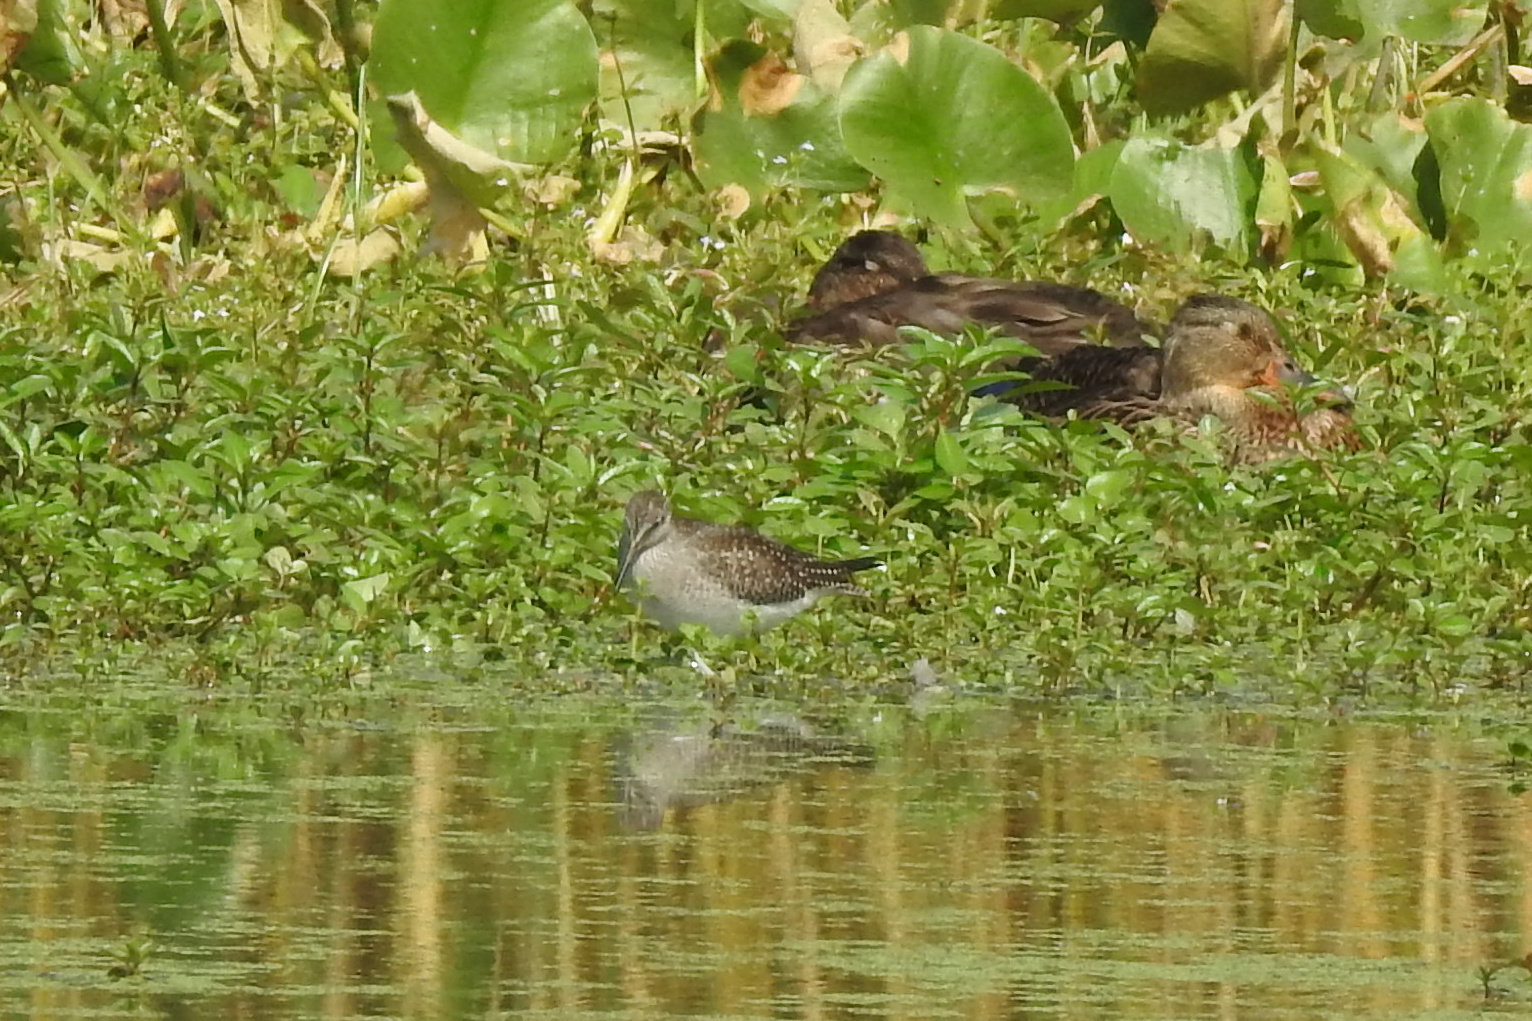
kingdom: Animalia
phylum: Chordata
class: Aves
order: Charadriiformes
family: Scolopacidae
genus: Tringa
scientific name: Tringa flavipes
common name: Lesser yellowlegs
